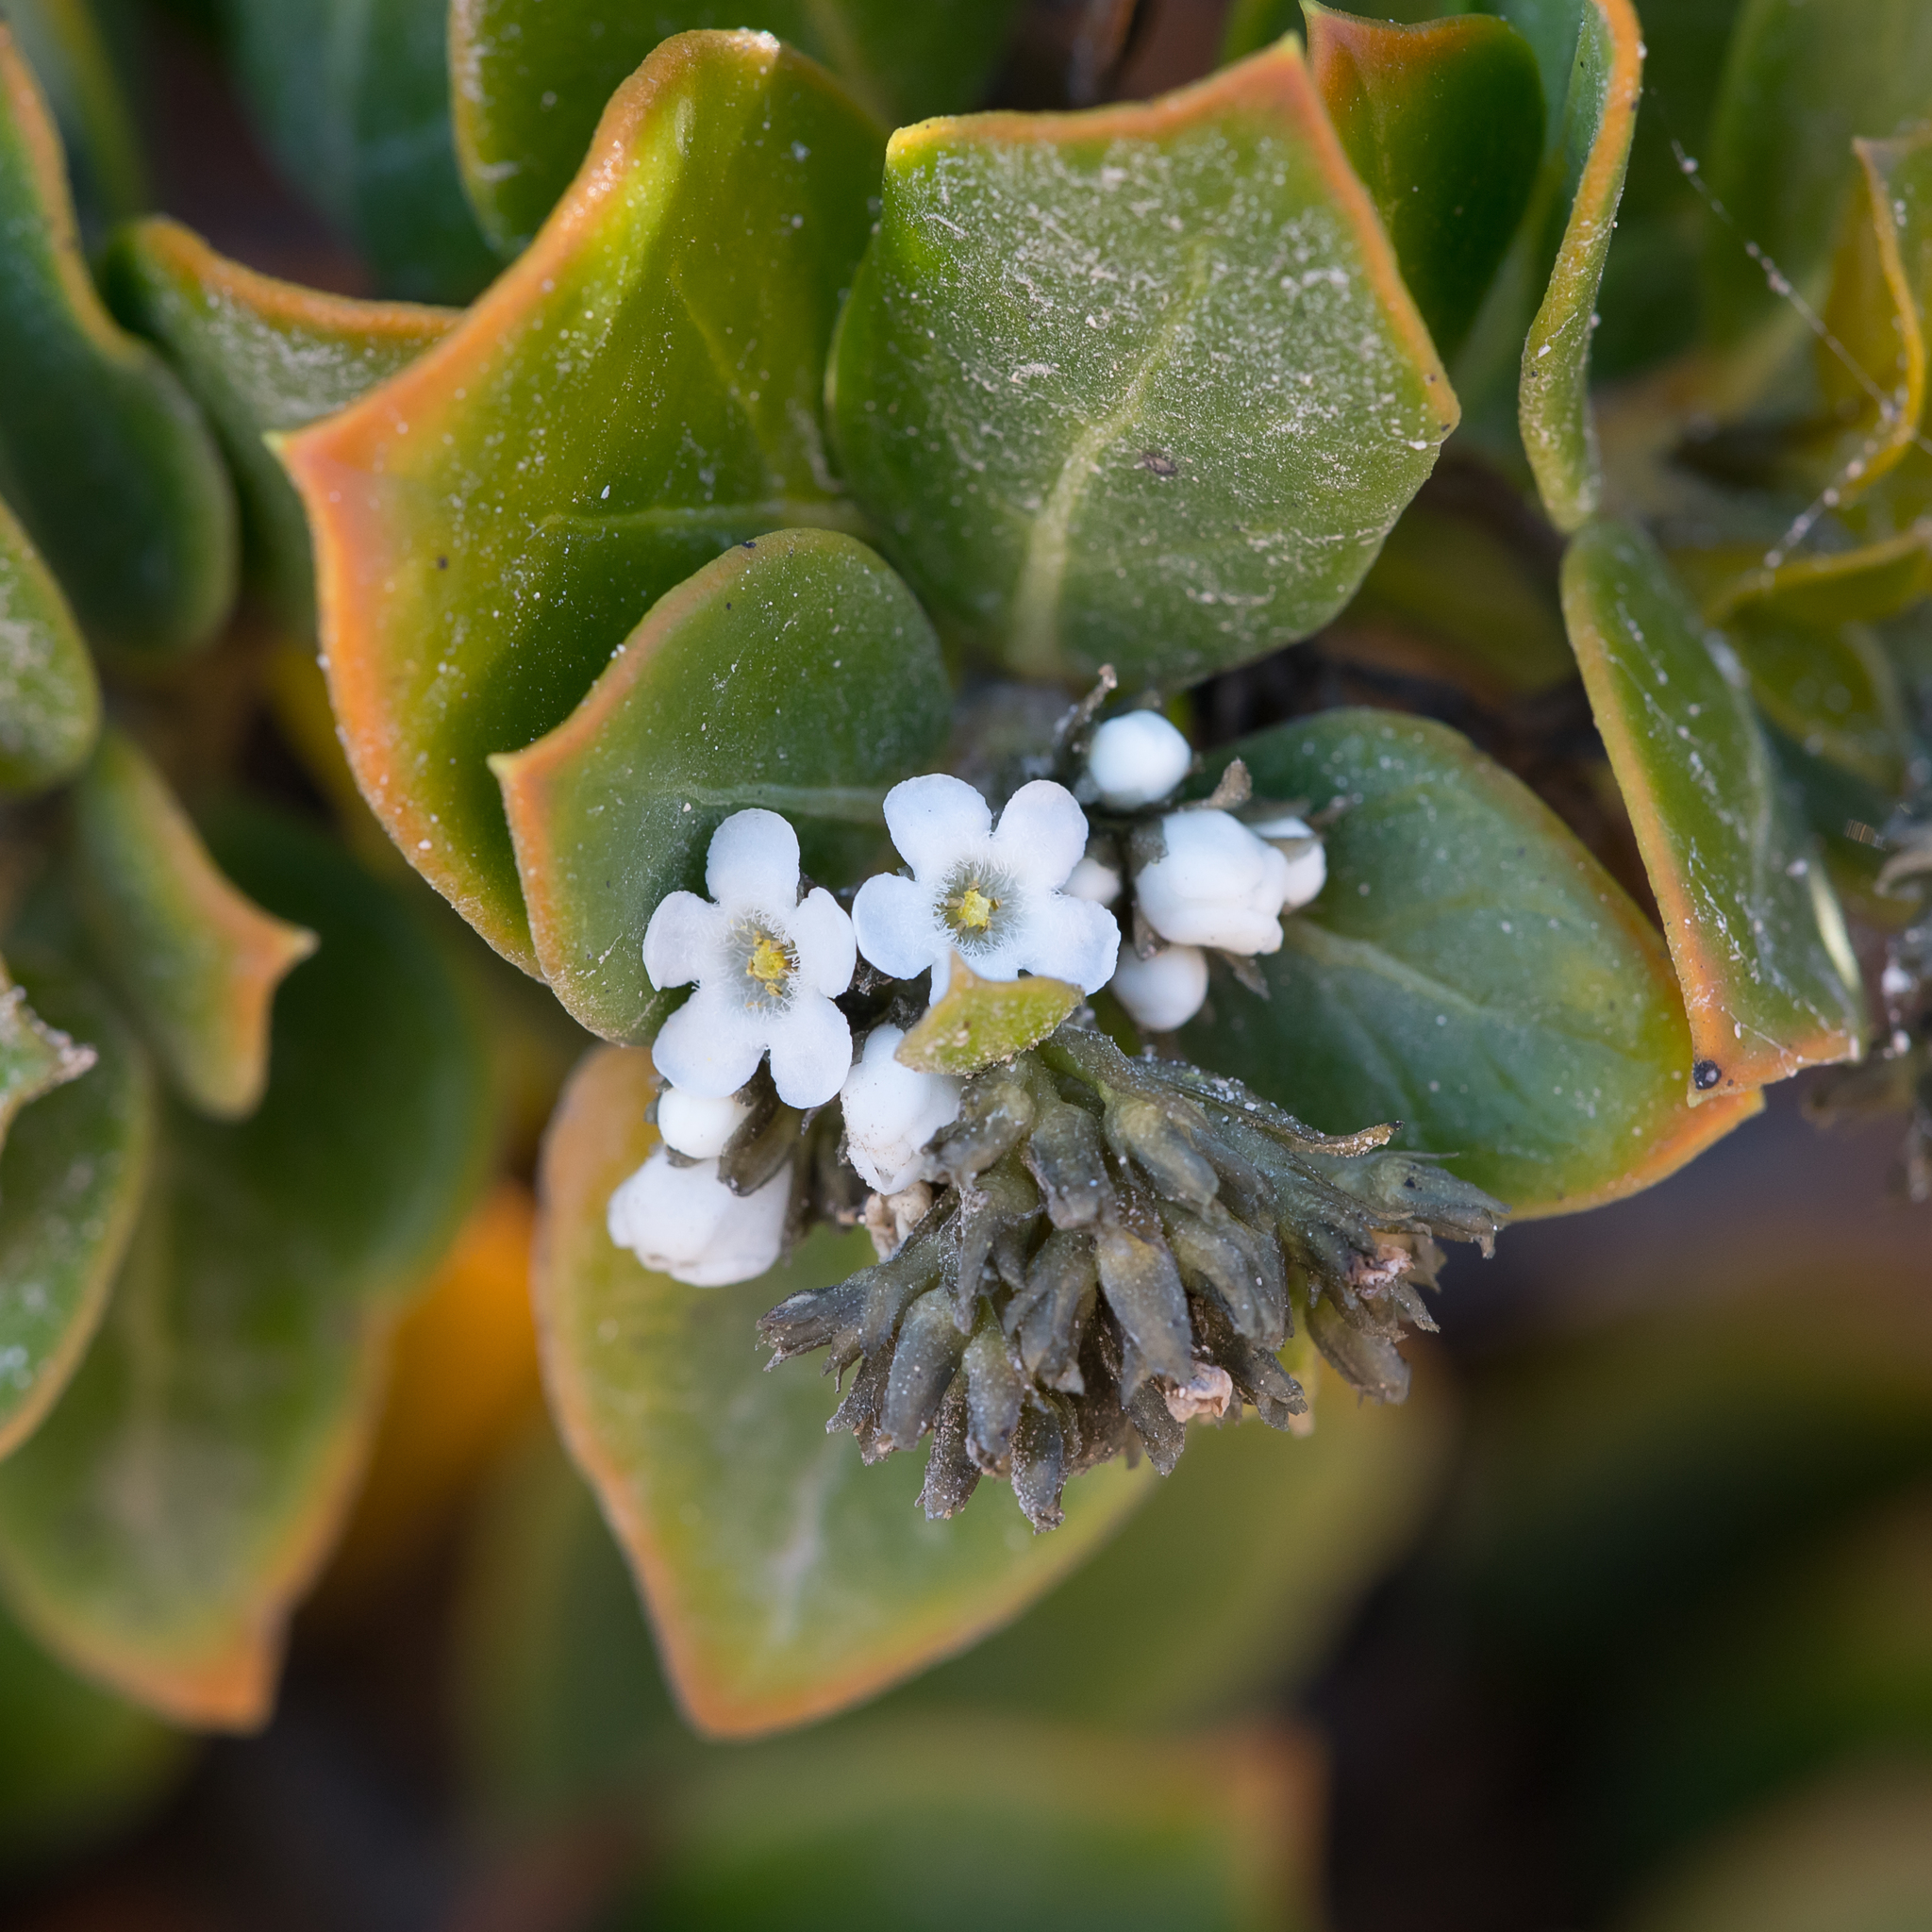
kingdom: Plantae
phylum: Tracheophyta
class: Magnoliopsida
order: Gentianales
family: Loganiaceae
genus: Logania
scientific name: Logania crassifolia
